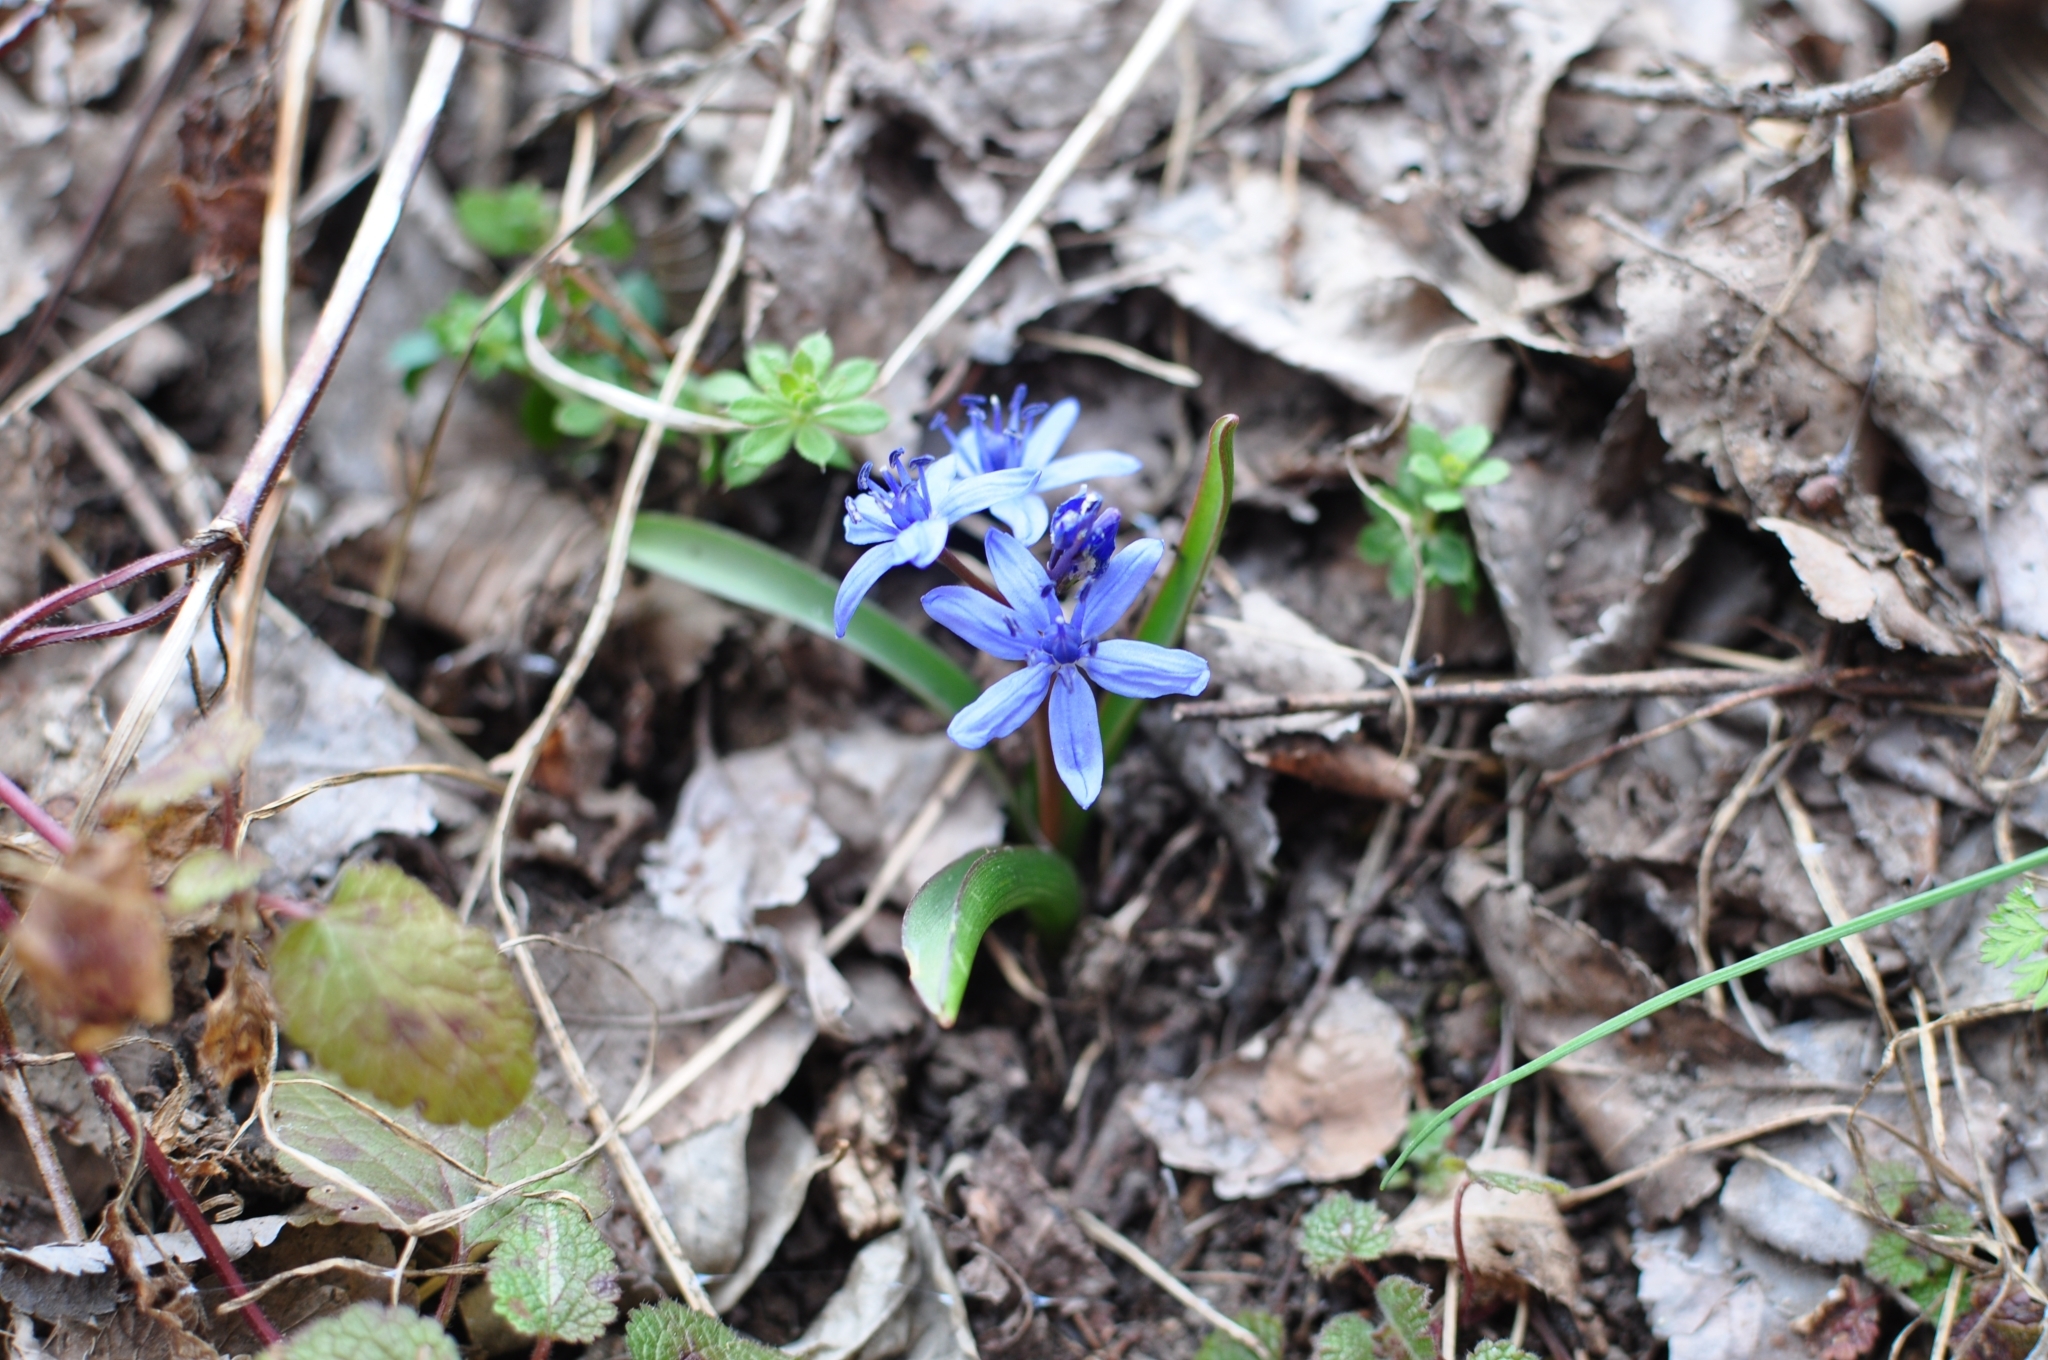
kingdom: Plantae
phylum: Tracheophyta
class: Liliopsida
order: Asparagales
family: Asparagaceae
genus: Scilla
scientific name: Scilla bifolia
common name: Alpine squill
